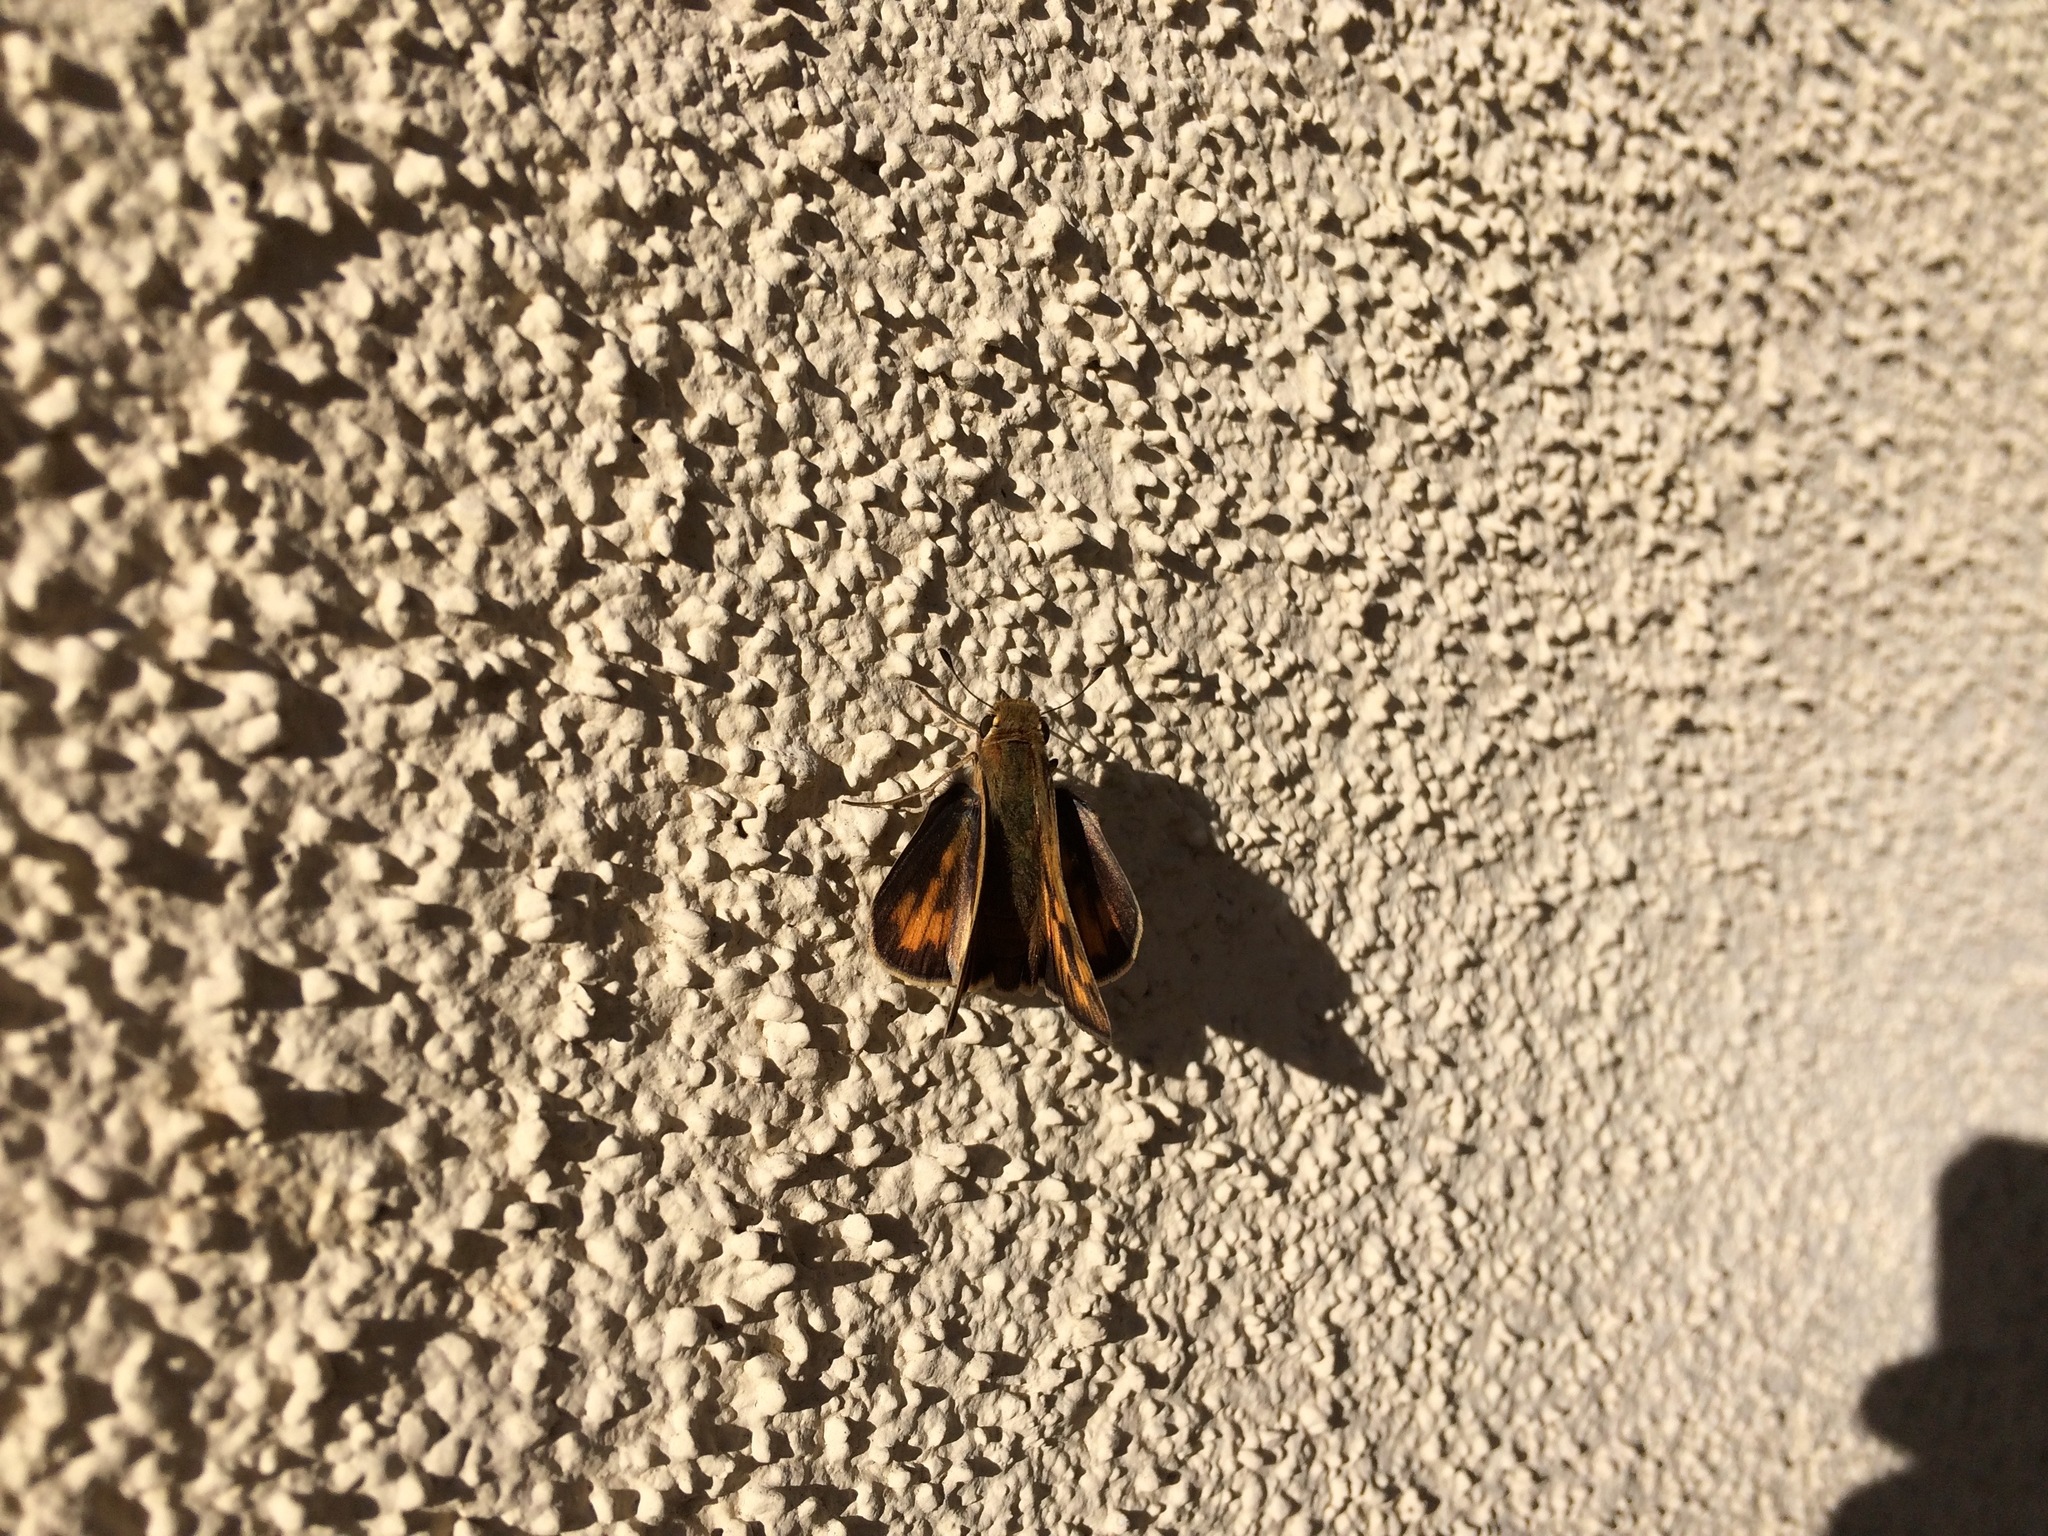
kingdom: Animalia
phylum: Arthropoda
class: Insecta
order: Lepidoptera
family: Hesperiidae
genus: Hylephila
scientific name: Hylephila phyleus
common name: Fiery skipper
